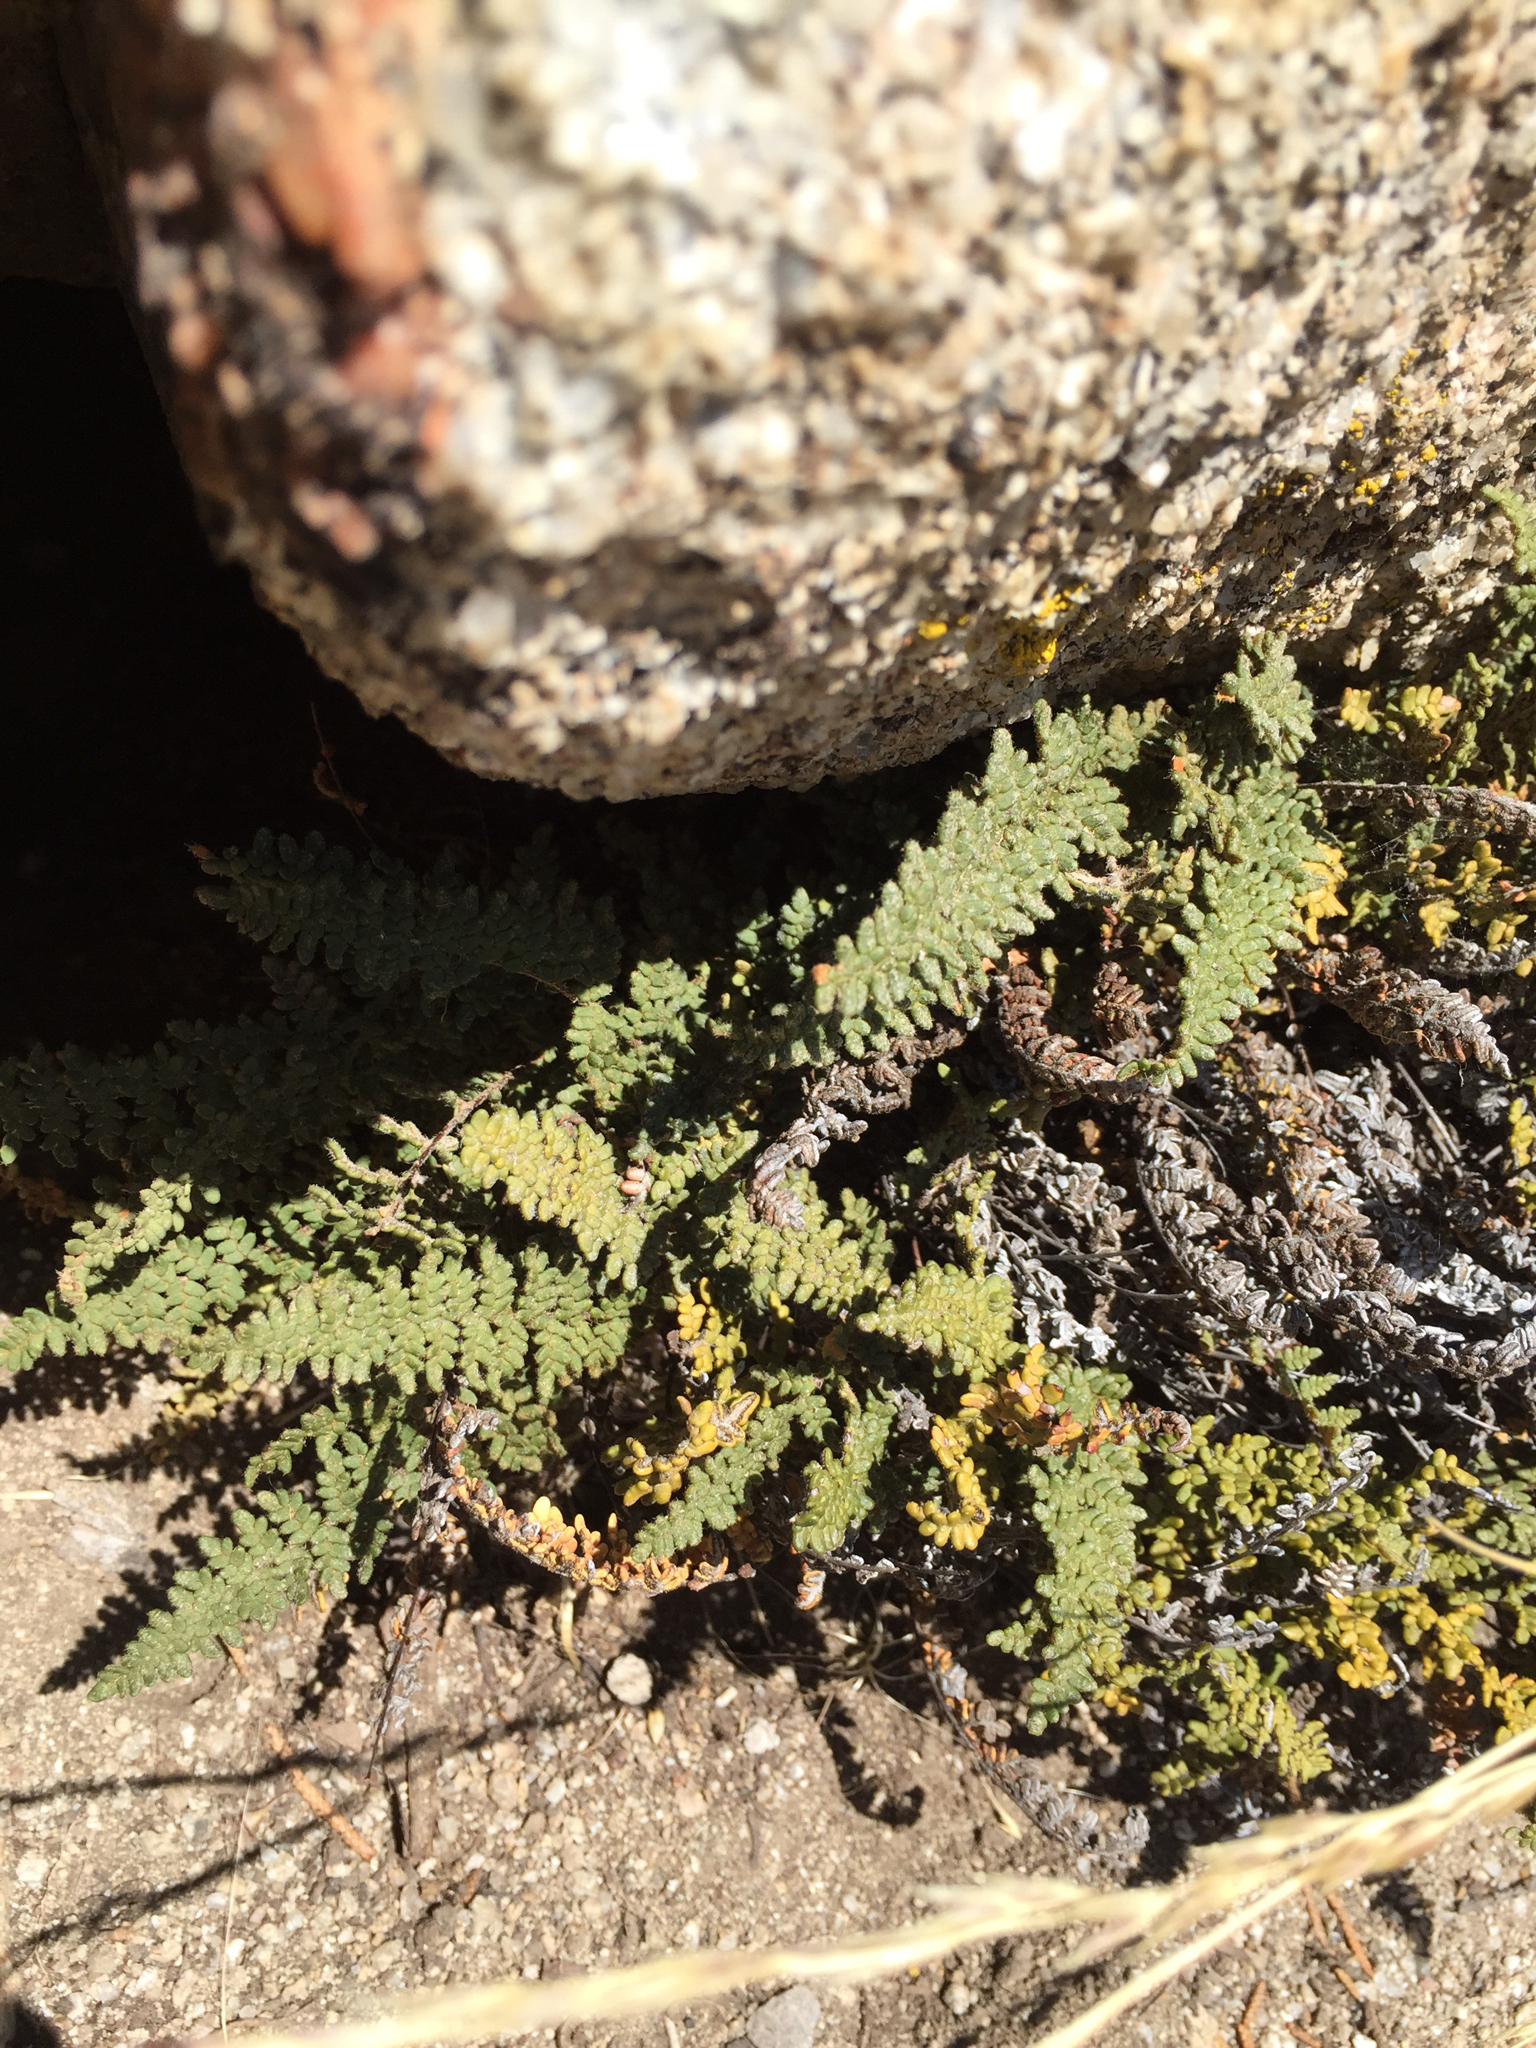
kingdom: Plantae
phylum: Tracheophyta
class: Polypodiopsida
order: Polypodiales
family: Pteridaceae
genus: Myriopteris
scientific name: Myriopteris gracillima
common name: Lace fern
